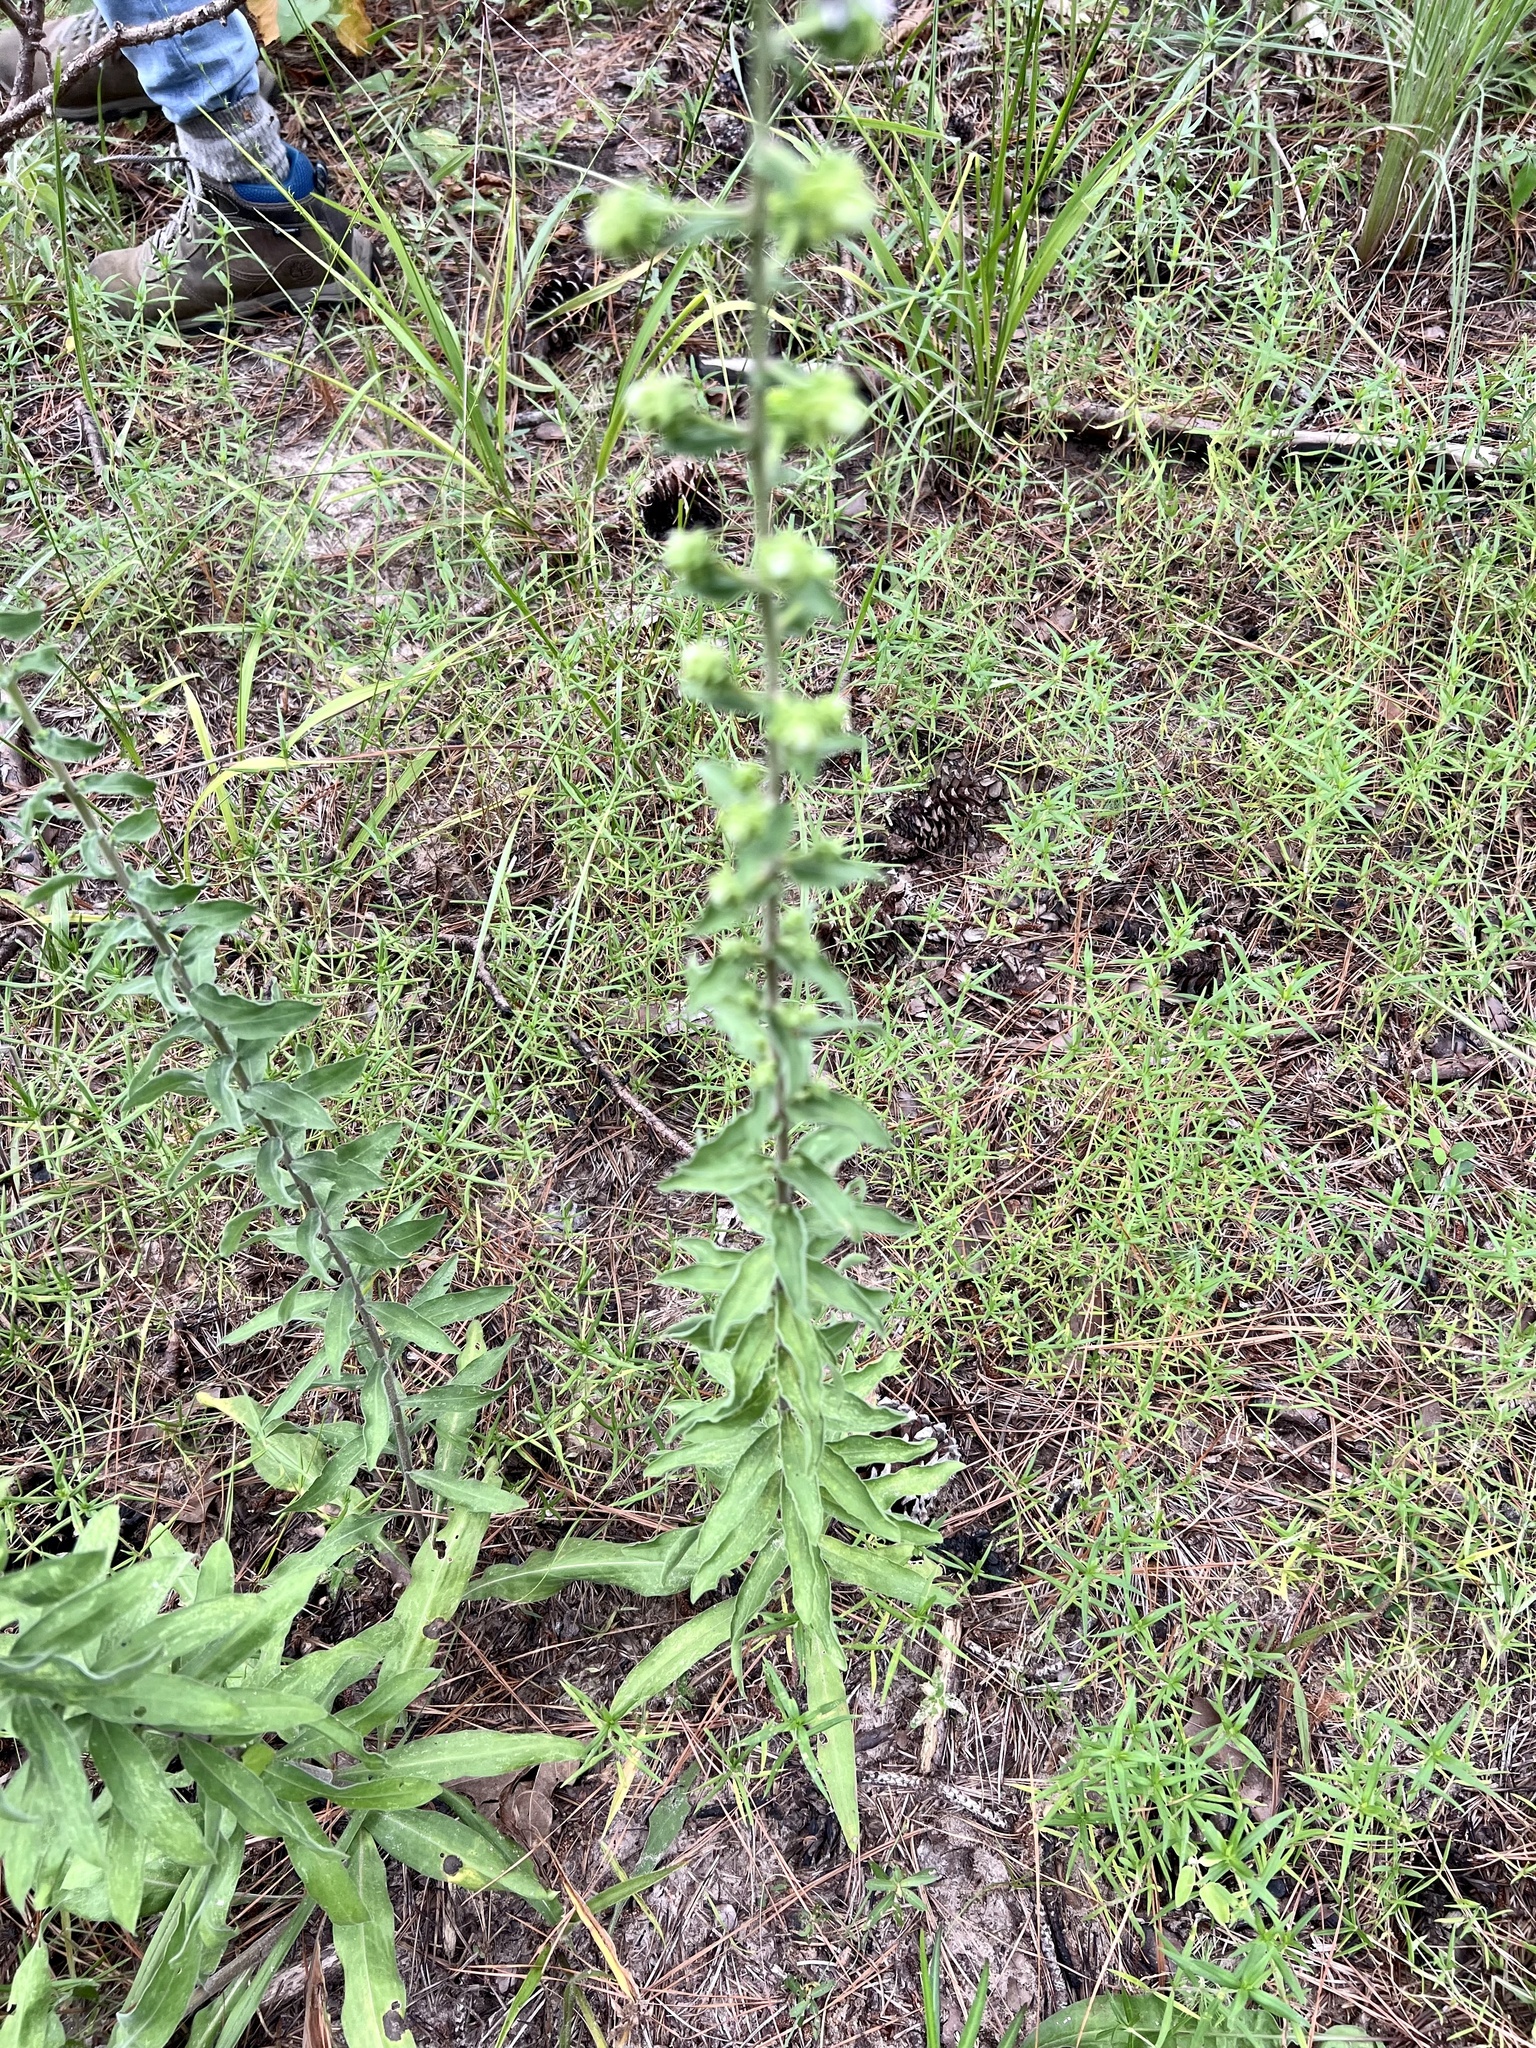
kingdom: Plantae
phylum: Tracheophyta
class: Magnoliopsida
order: Asterales
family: Asteraceae
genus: Liatris
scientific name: Liatris squarrulosa
